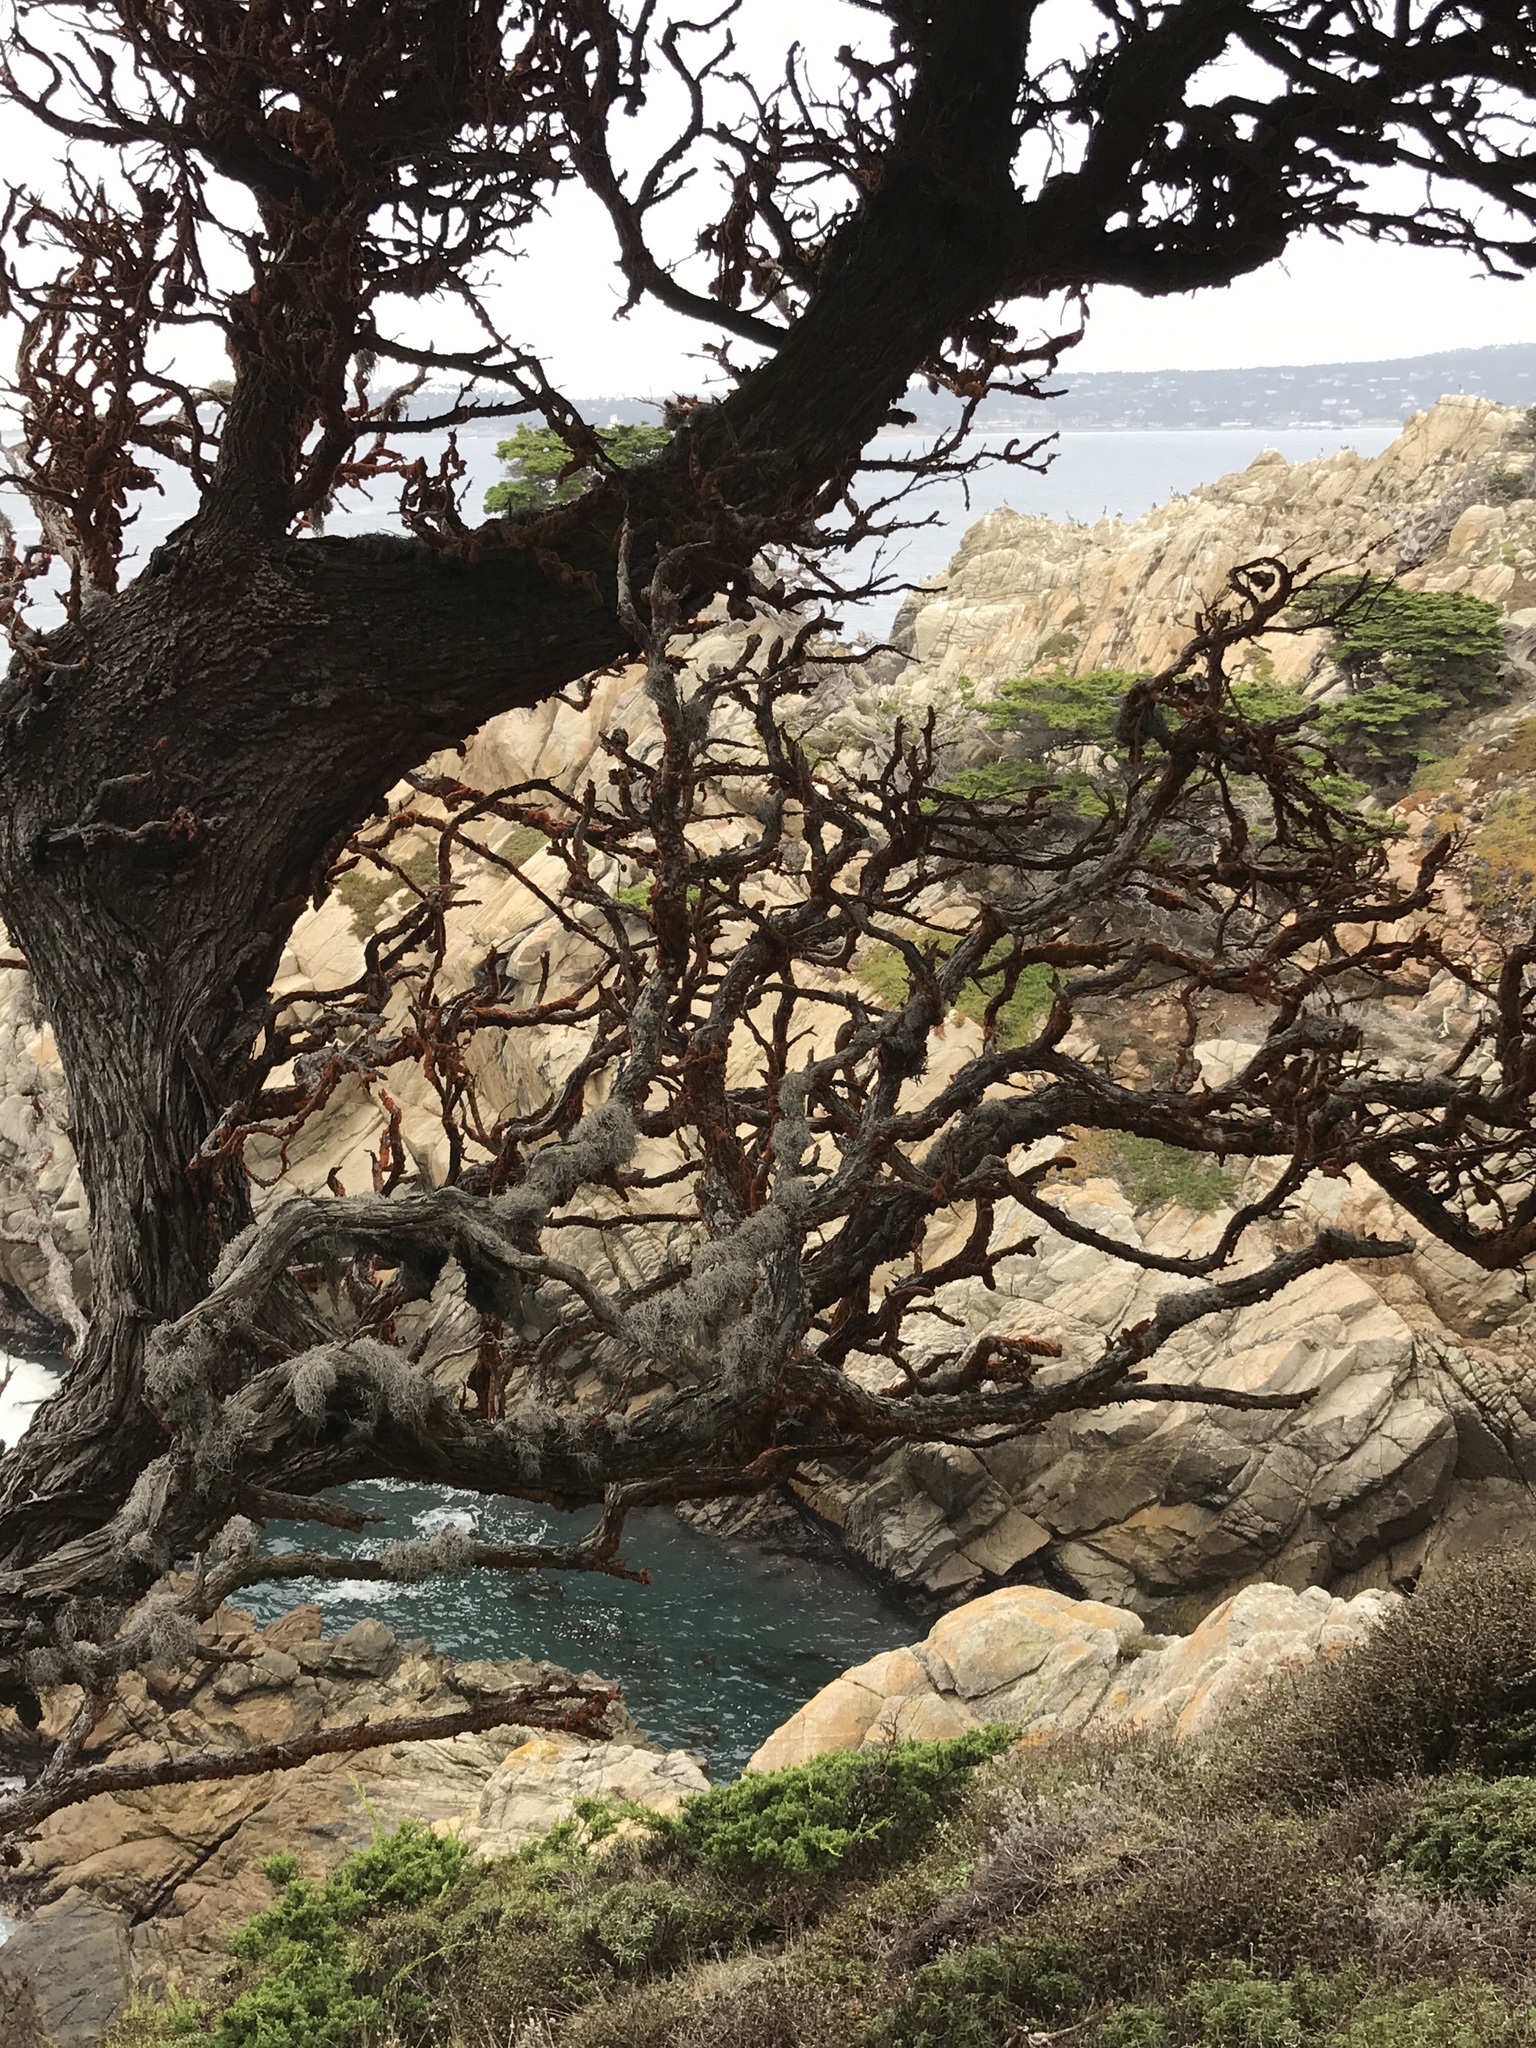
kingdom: Plantae
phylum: Chlorophyta
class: Ulvophyceae
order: Trentepohliales
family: Trentepohliaceae
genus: Trentepohlia
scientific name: Trentepohlia aurea
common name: Orange rock hair
